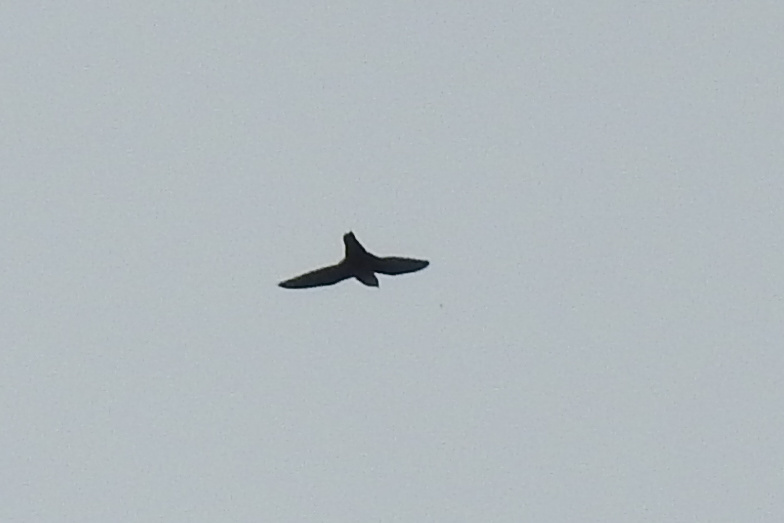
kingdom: Animalia
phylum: Chordata
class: Aves
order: Apodiformes
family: Apodidae
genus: Chaetura
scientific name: Chaetura pelagica
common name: Chimney swift
